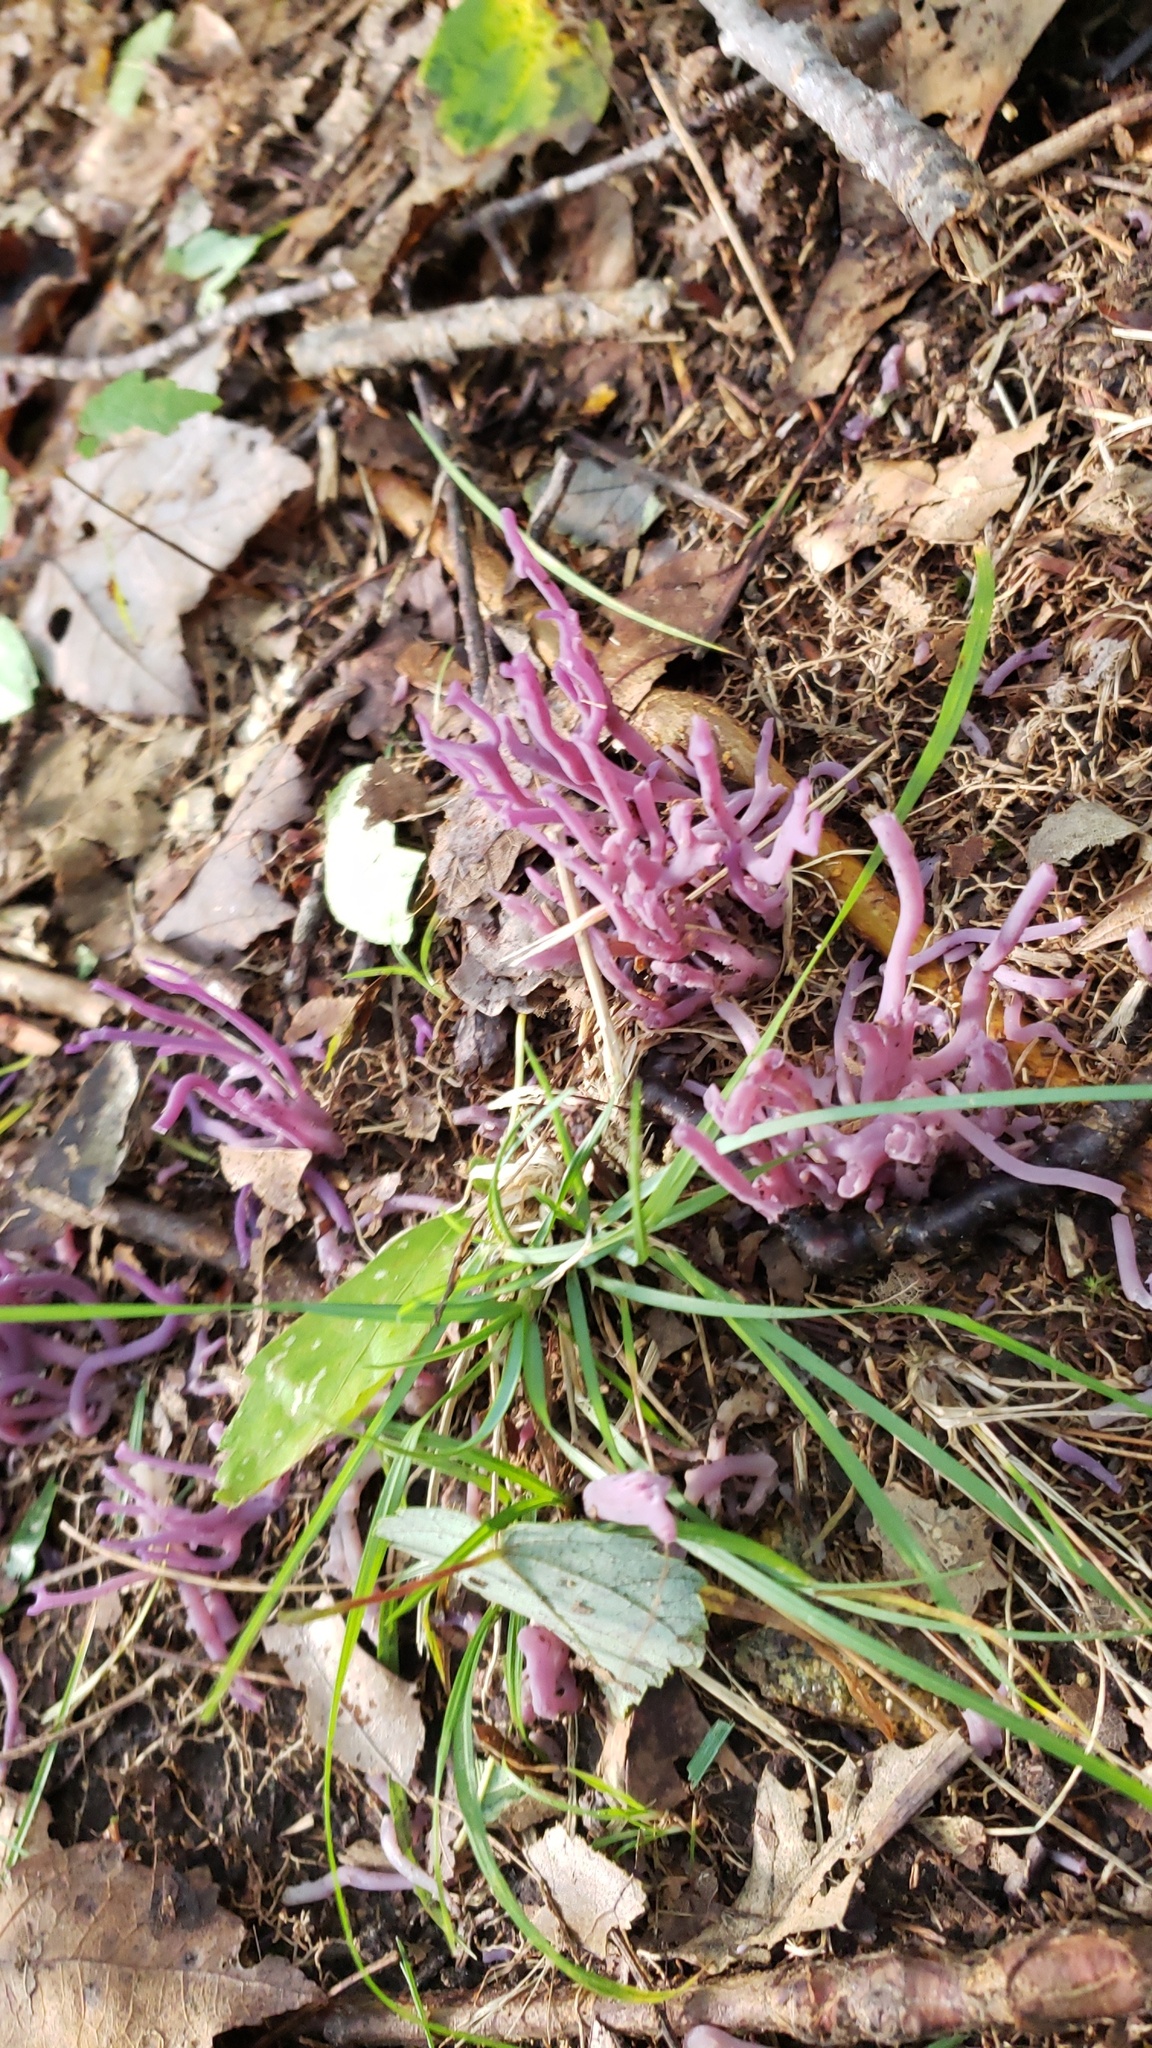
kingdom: Fungi
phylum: Basidiomycota
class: Agaricomycetes
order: Agaricales
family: Clavariaceae
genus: Clavaria
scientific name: Clavaria zollingeri
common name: Violet coral
